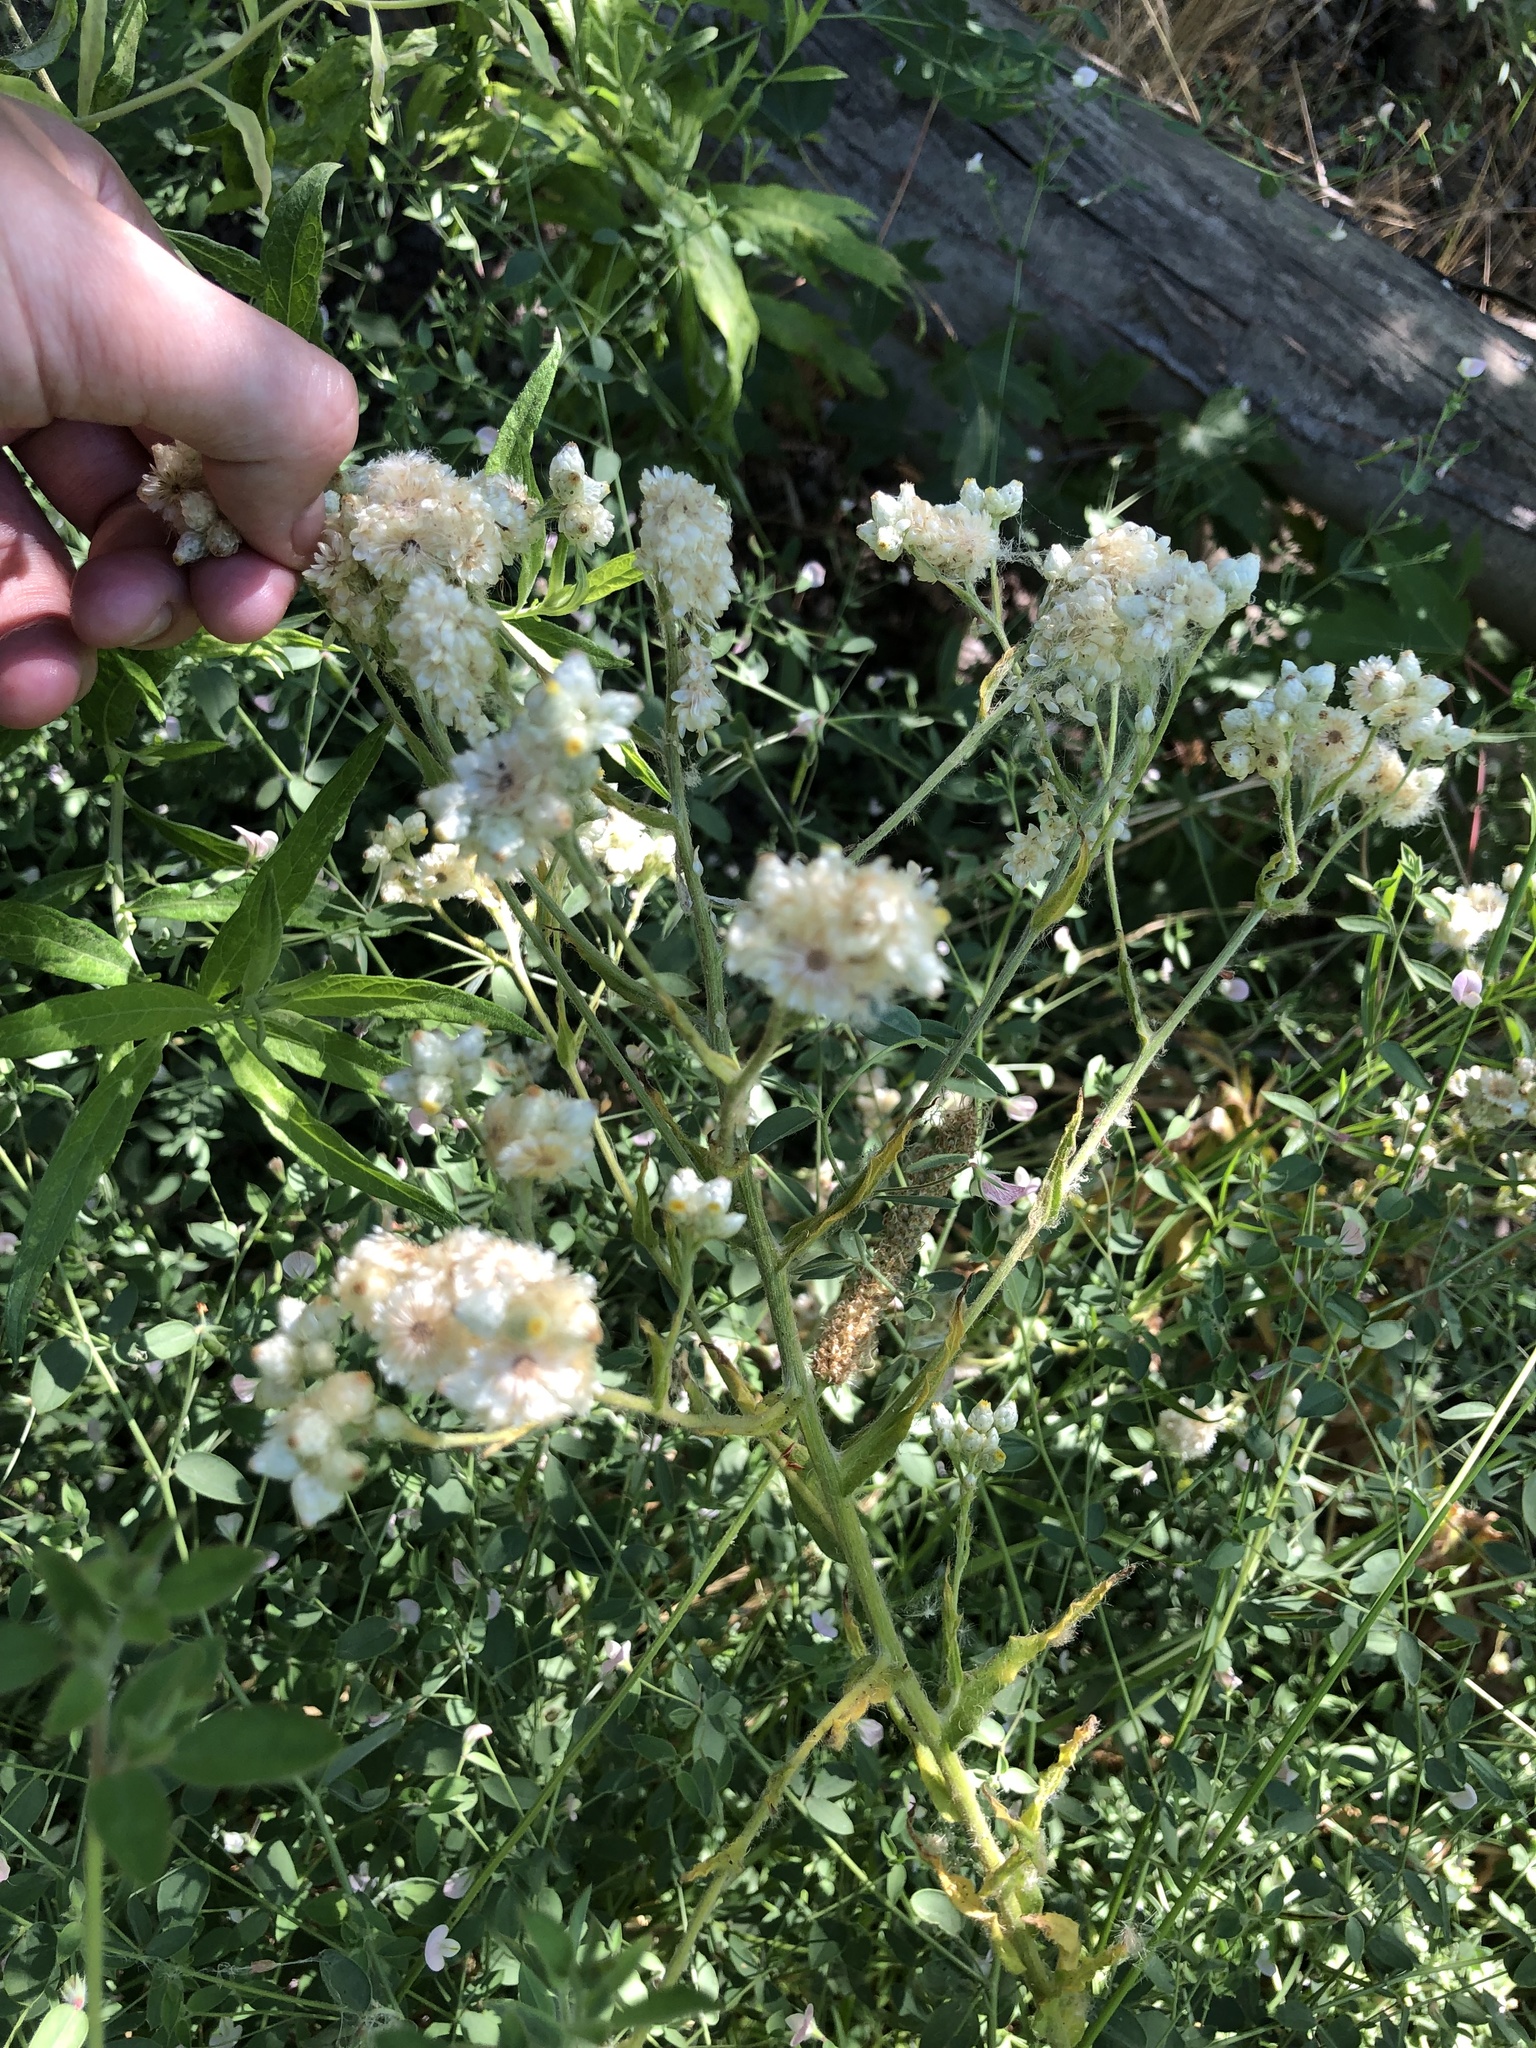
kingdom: Plantae
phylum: Tracheophyta
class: Magnoliopsida
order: Asterales
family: Asteraceae
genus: Pseudognaphalium
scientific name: Pseudognaphalium californicum
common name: California rabbit-tobacco
